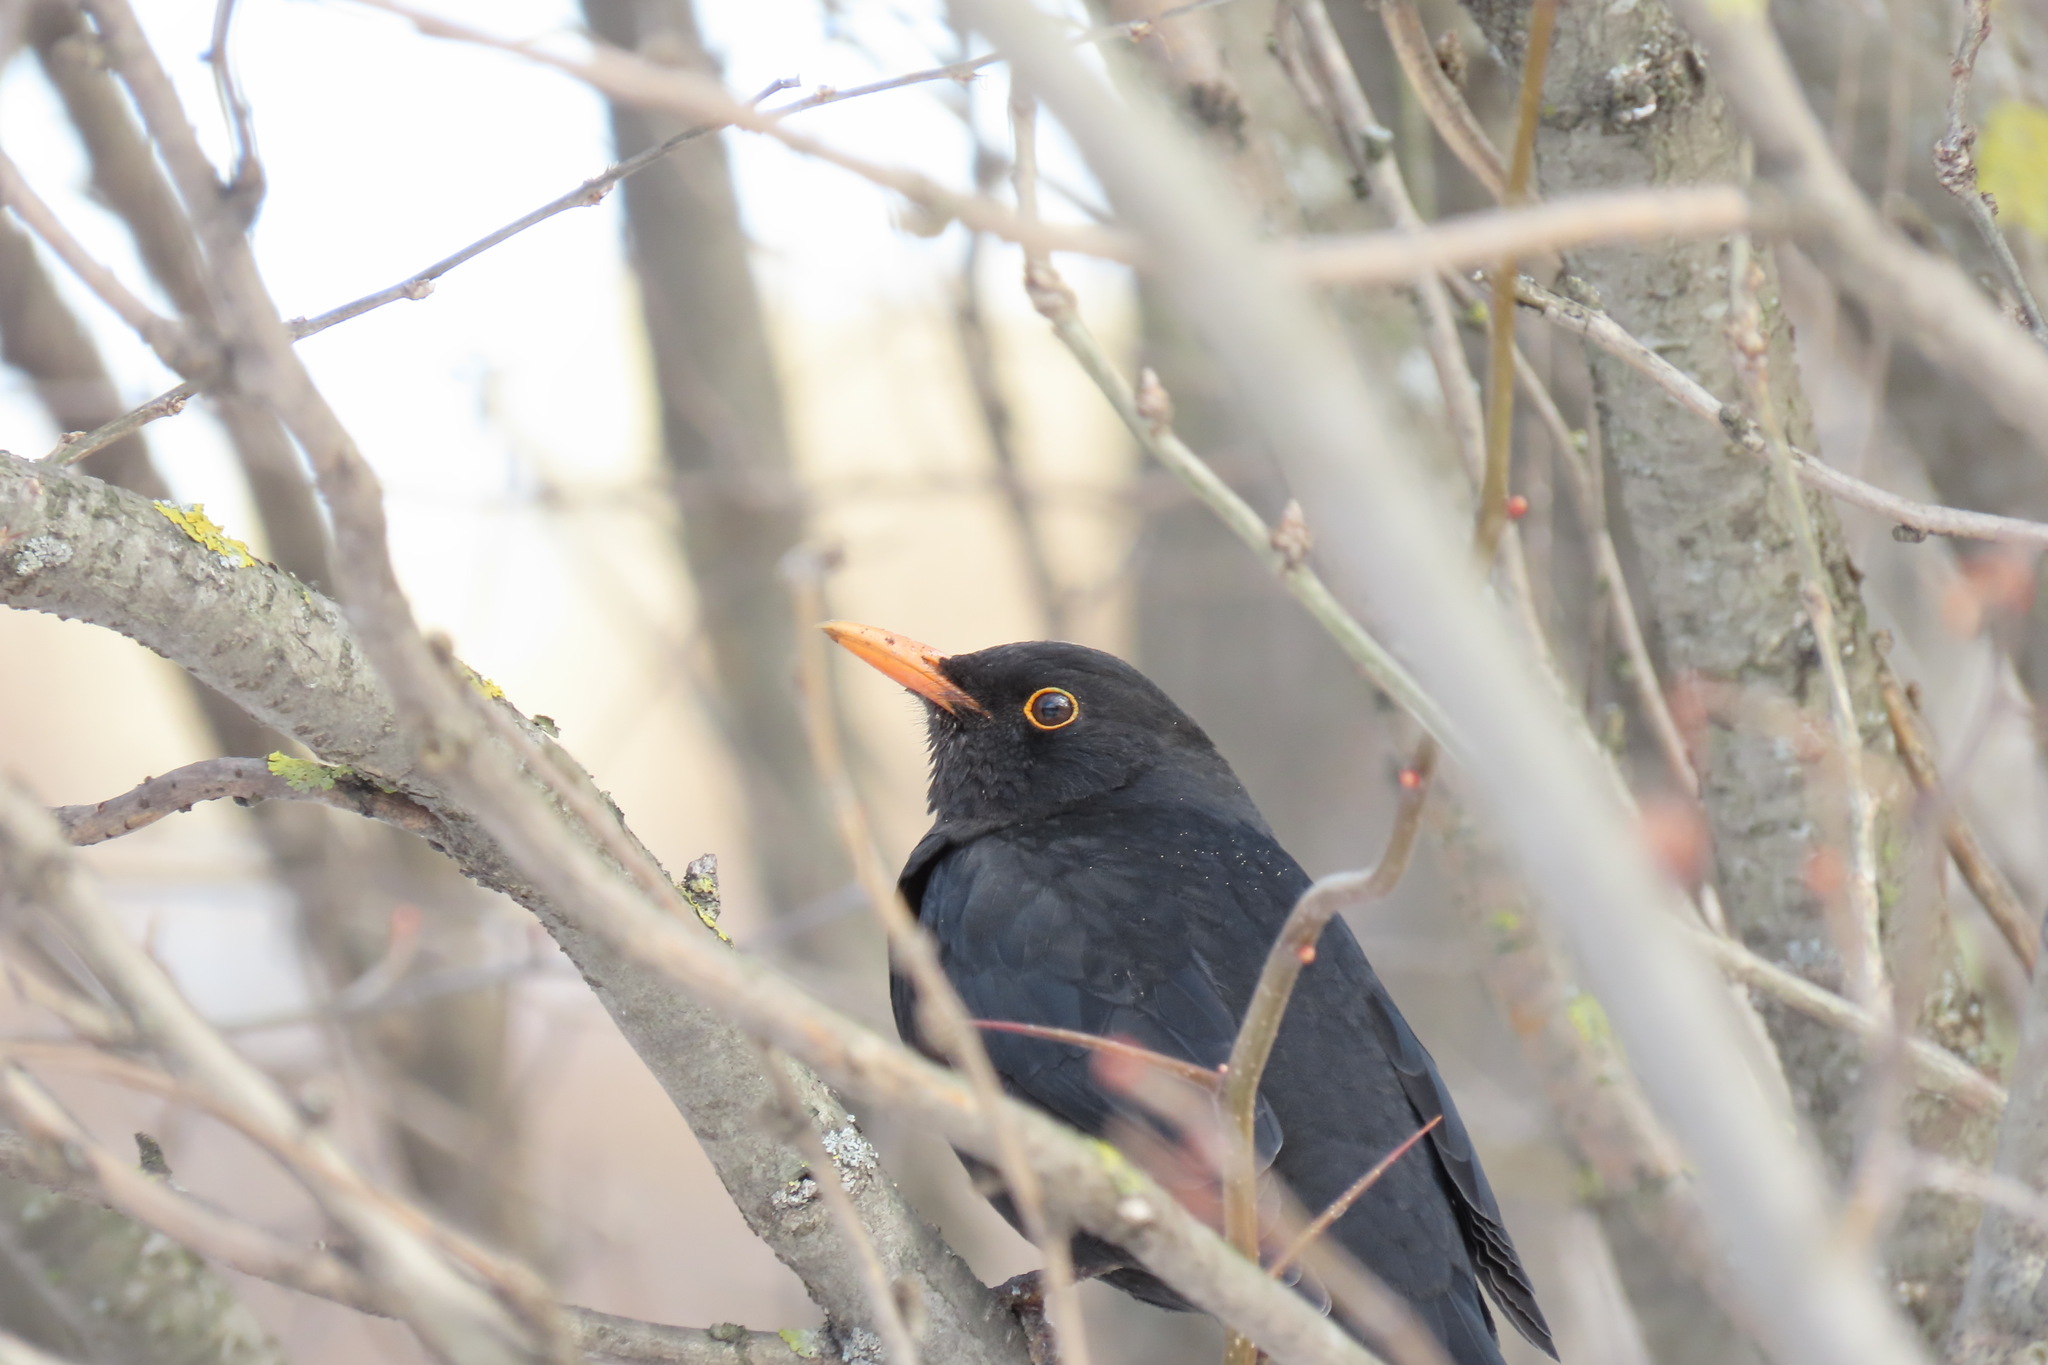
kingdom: Animalia
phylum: Chordata
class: Aves
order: Passeriformes
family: Turdidae
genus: Turdus
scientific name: Turdus merula
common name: Common blackbird
